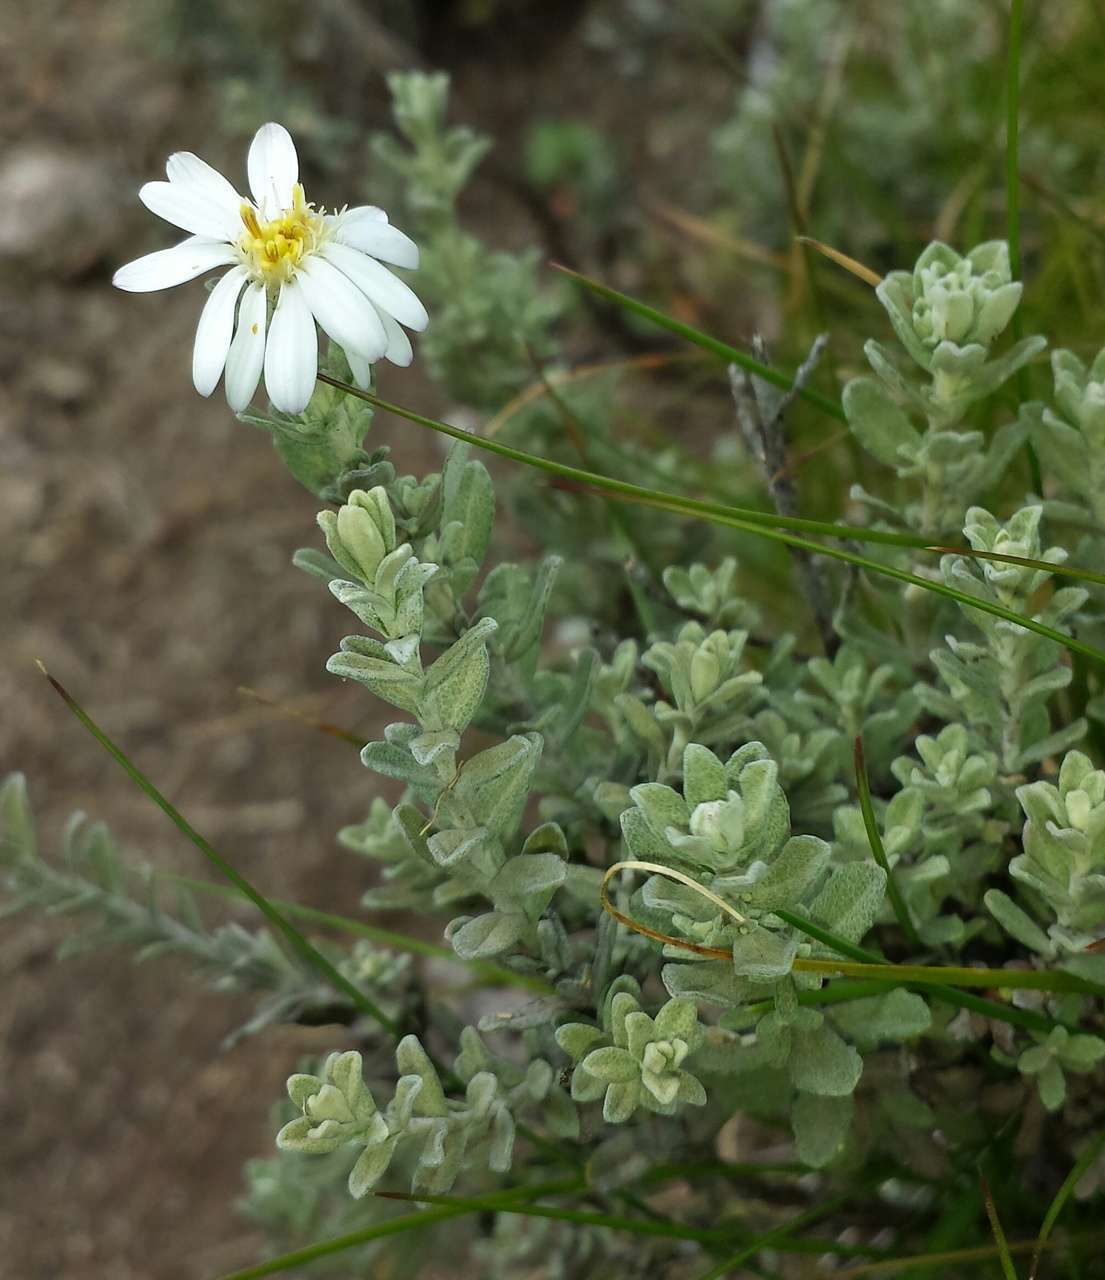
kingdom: Plantae
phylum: Tracheophyta
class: Magnoliopsida
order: Asterales
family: Asteraceae
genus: Olearia
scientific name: Olearia brevipedunculata
